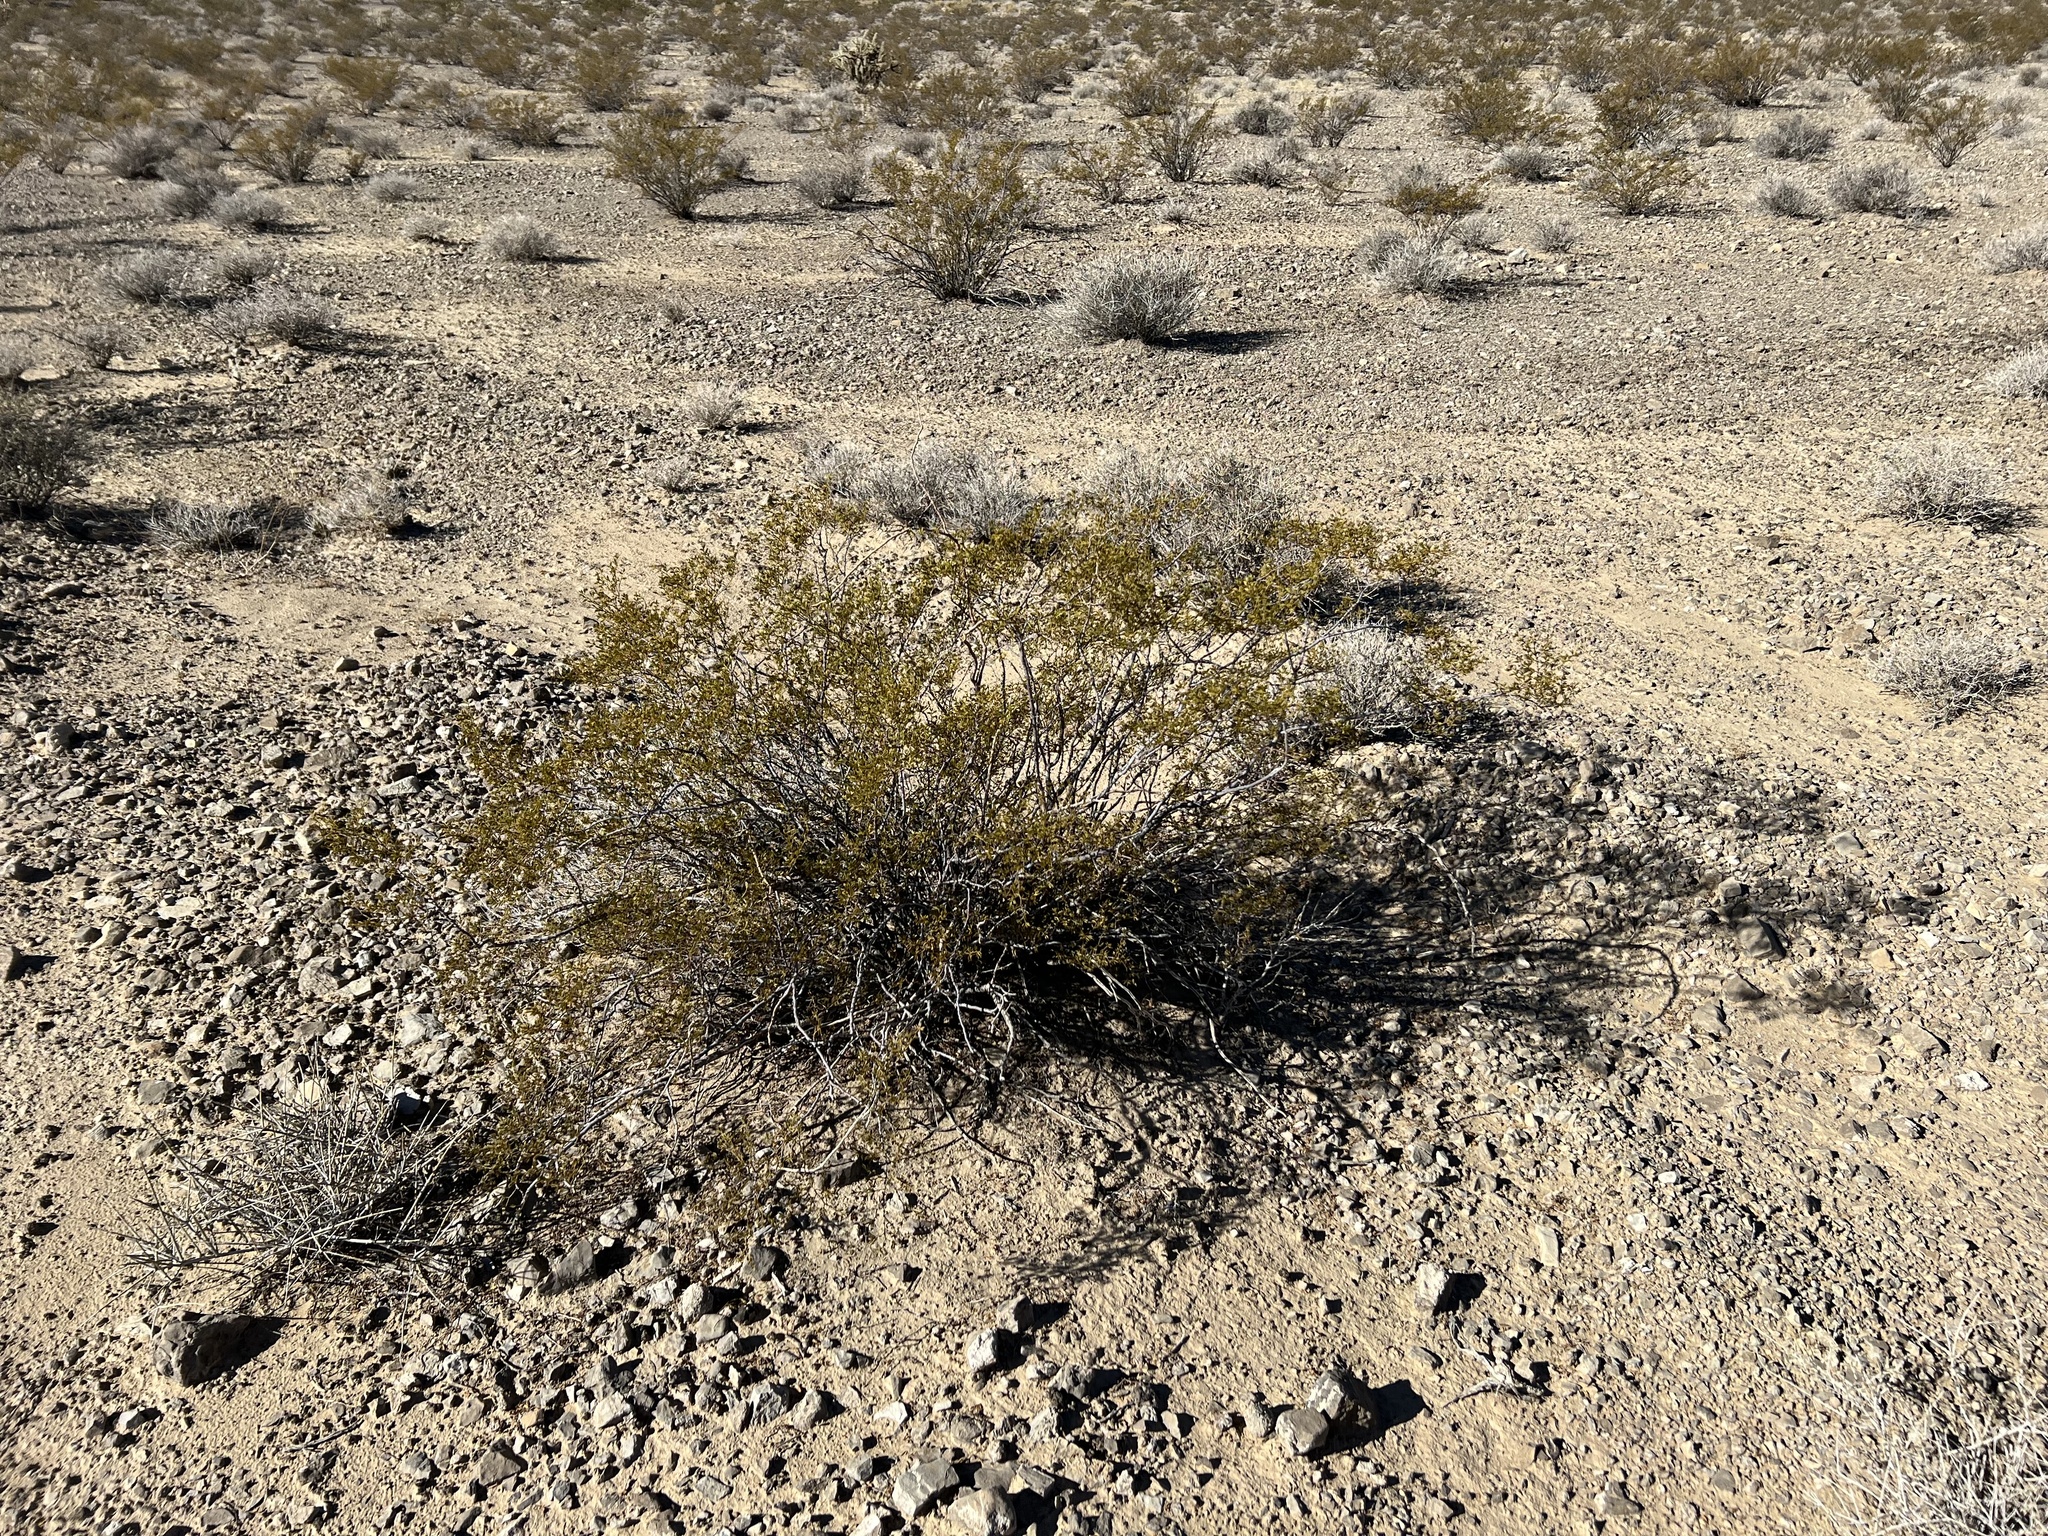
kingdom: Plantae
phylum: Tracheophyta
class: Magnoliopsida
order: Zygophyllales
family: Zygophyllaceae
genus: Larrea
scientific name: Larrea tridentata
